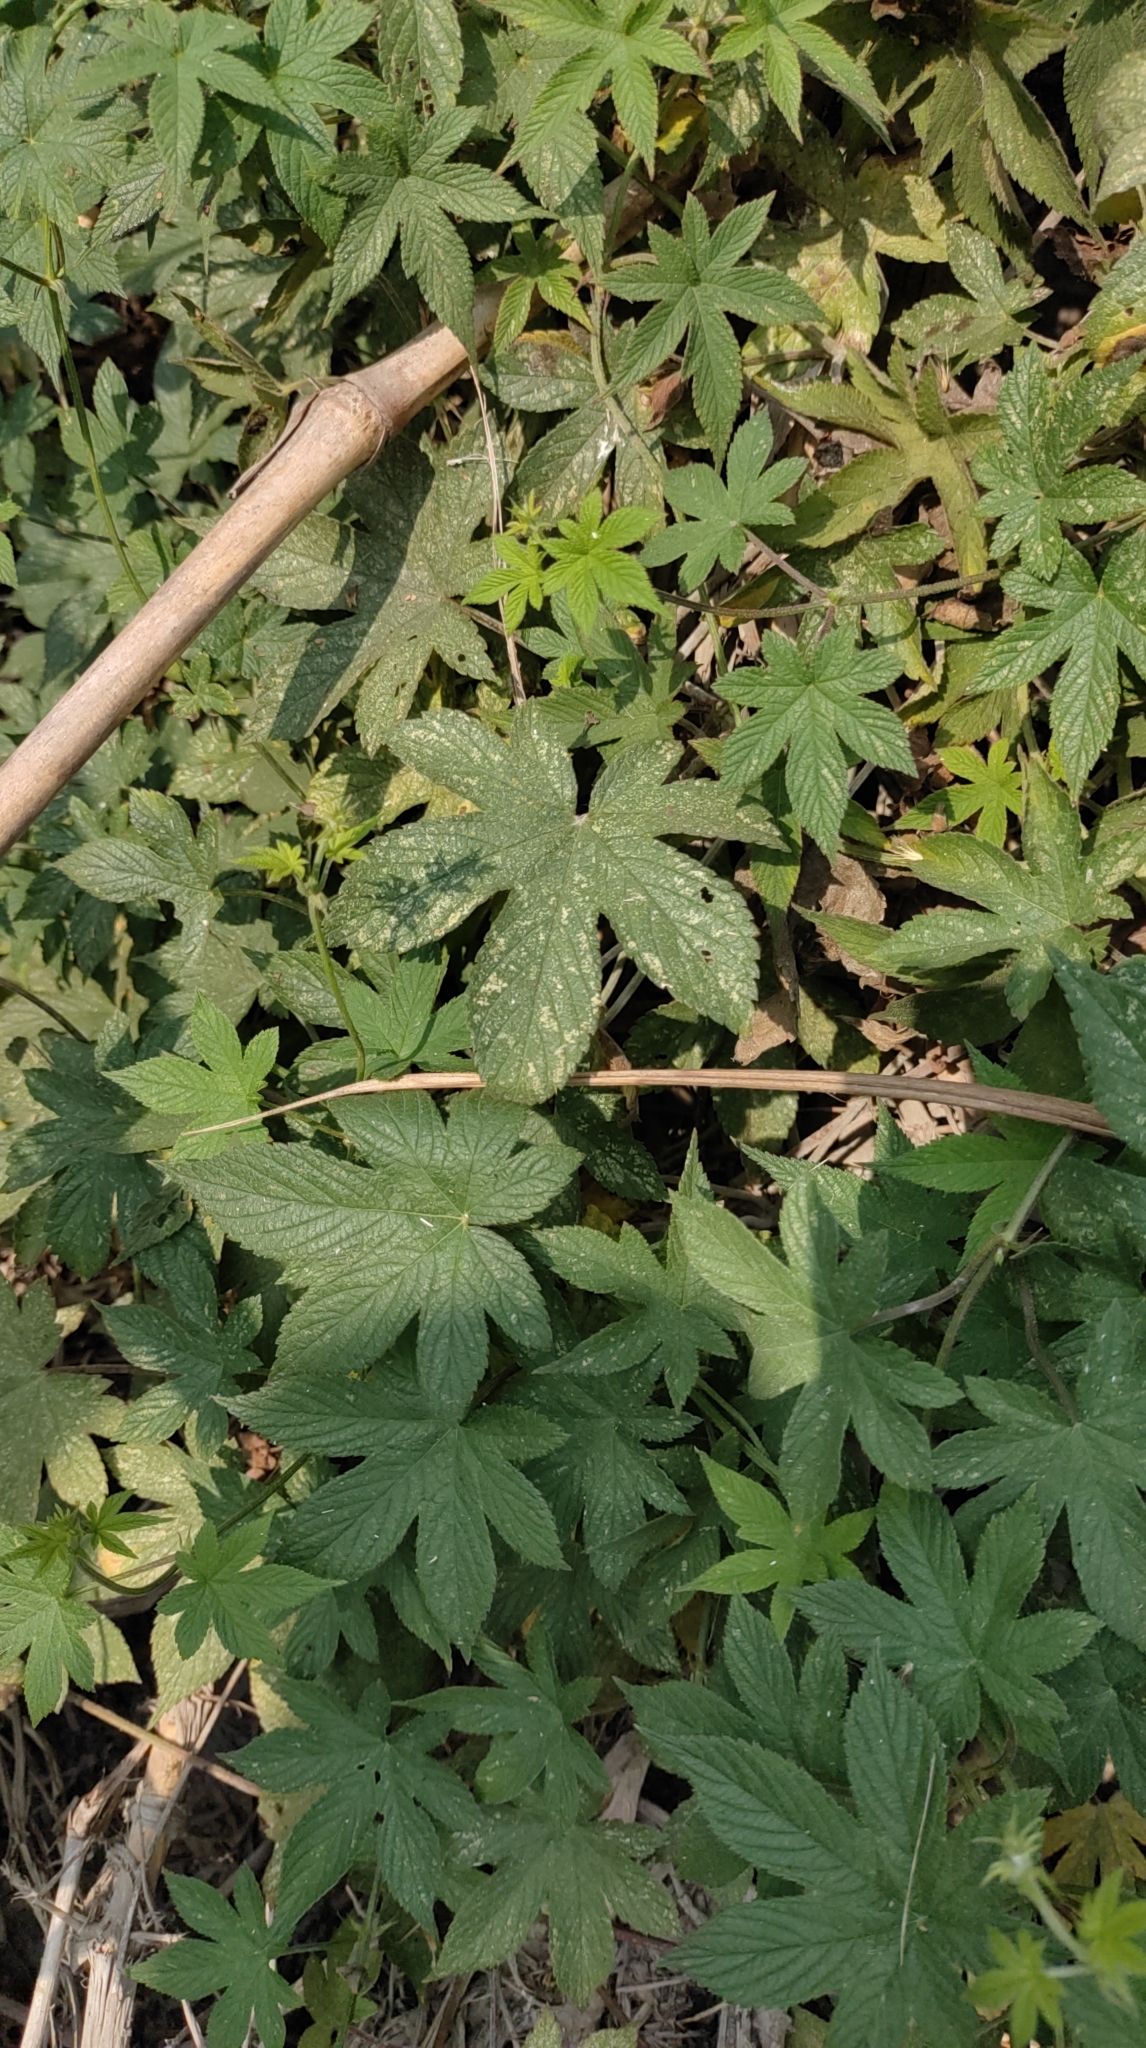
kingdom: Plantae
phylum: Tracheophyta
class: Magnoliopsida
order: Rosales
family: Cannabaceae
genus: Humulus
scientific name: Humulus scandens
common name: Japanese hop
